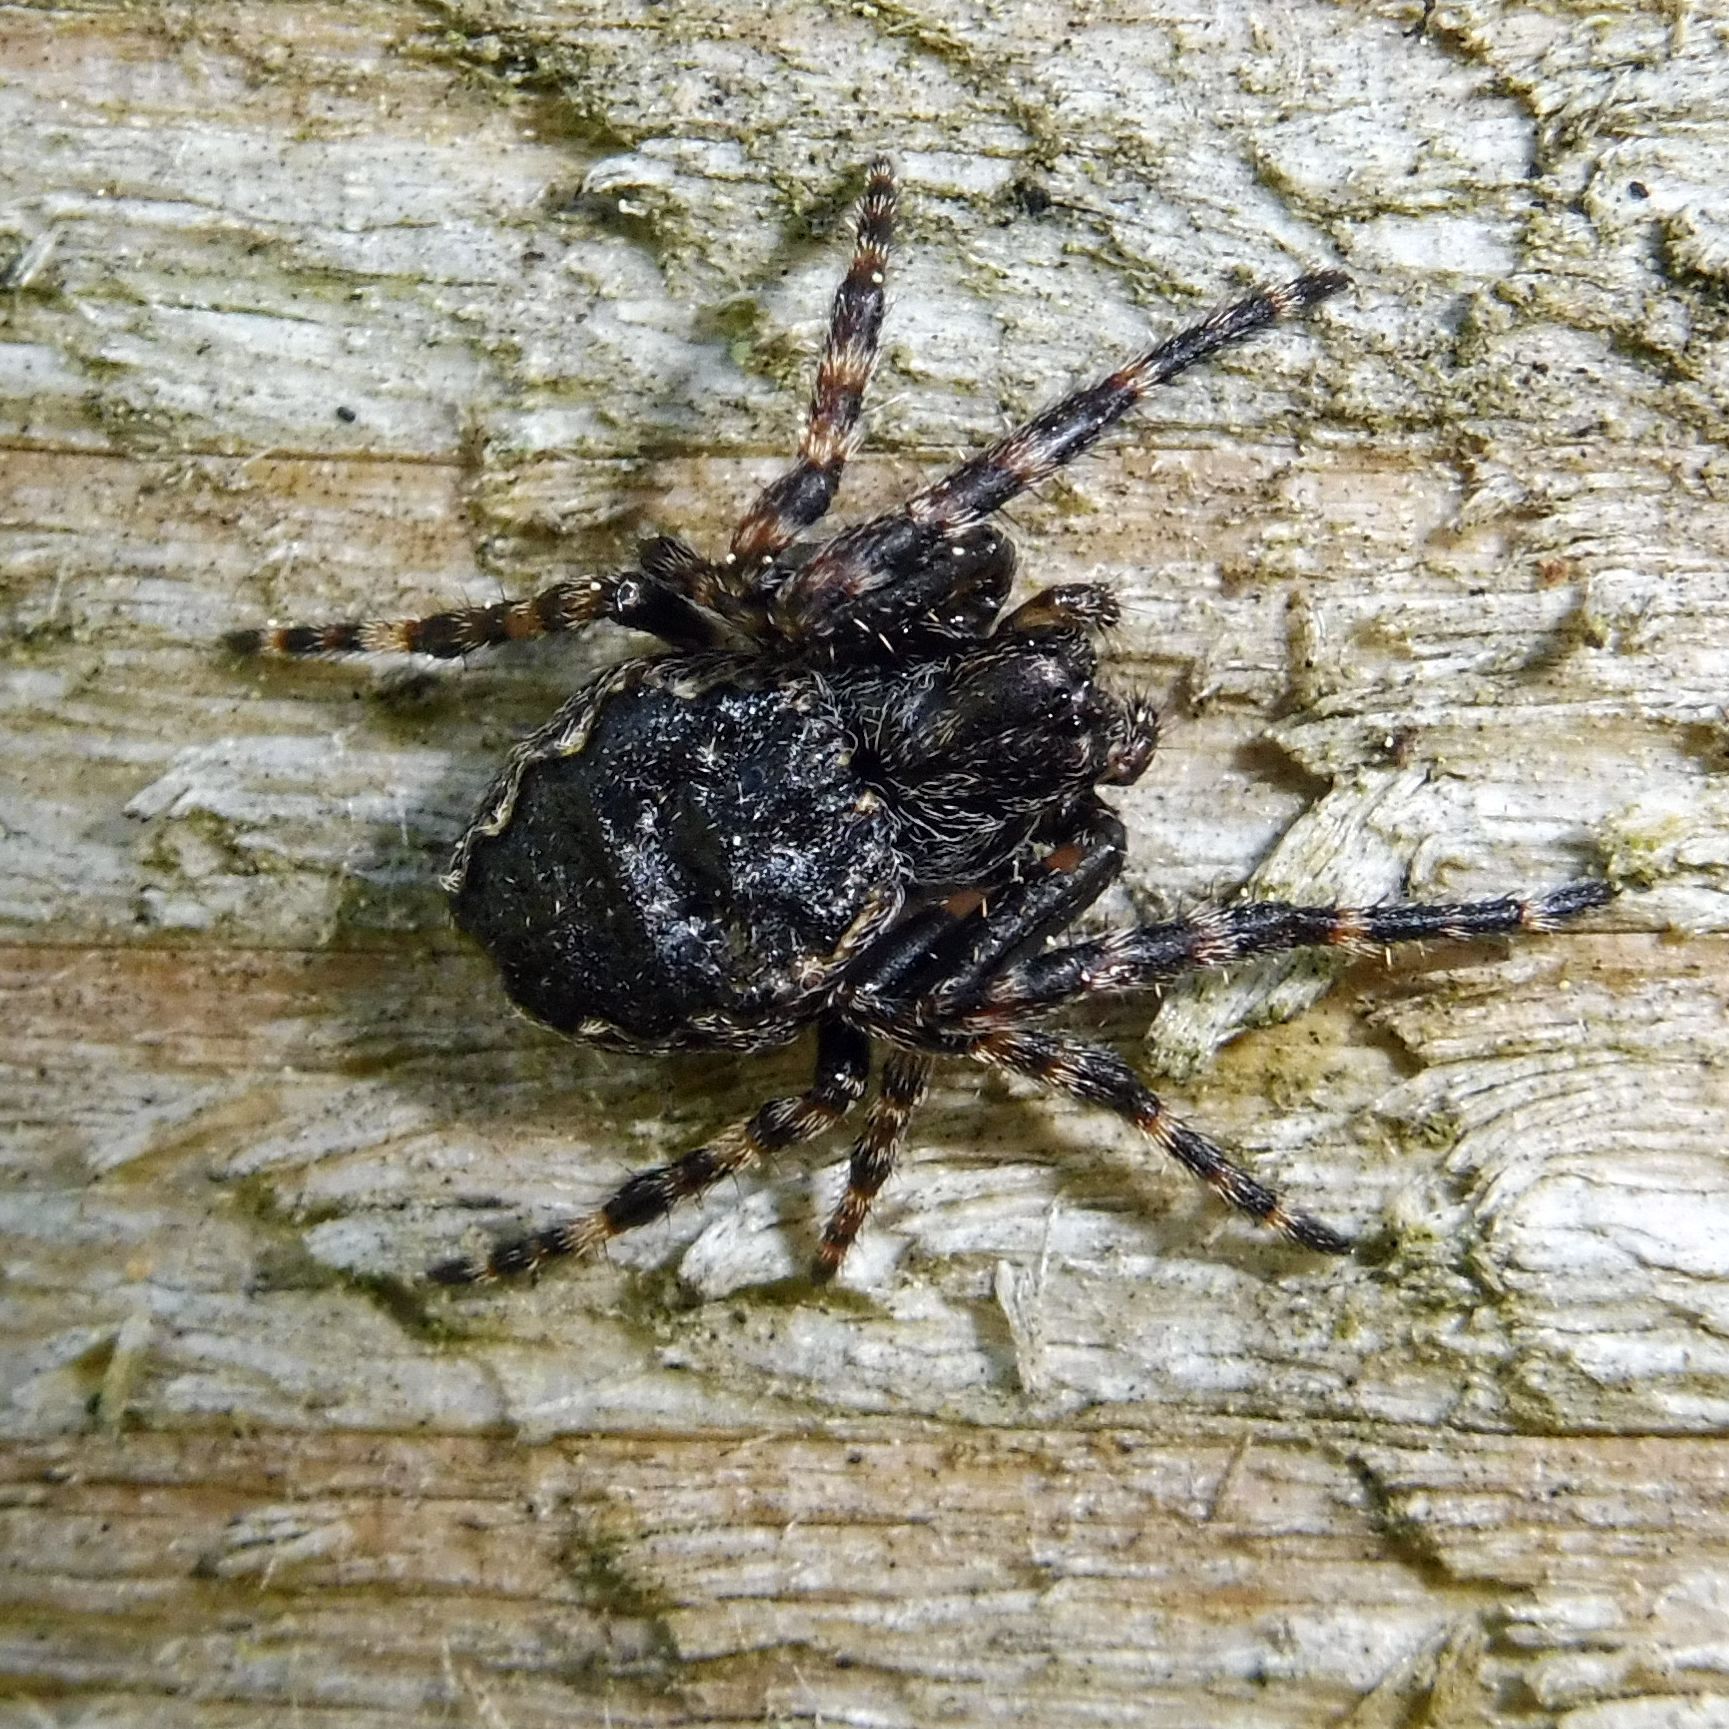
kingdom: Animalia
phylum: Arthropoda
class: Arachnida
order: Araneae
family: Araneidae
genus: Nuctenea
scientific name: Nuctenea umbratica
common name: Toad spider
